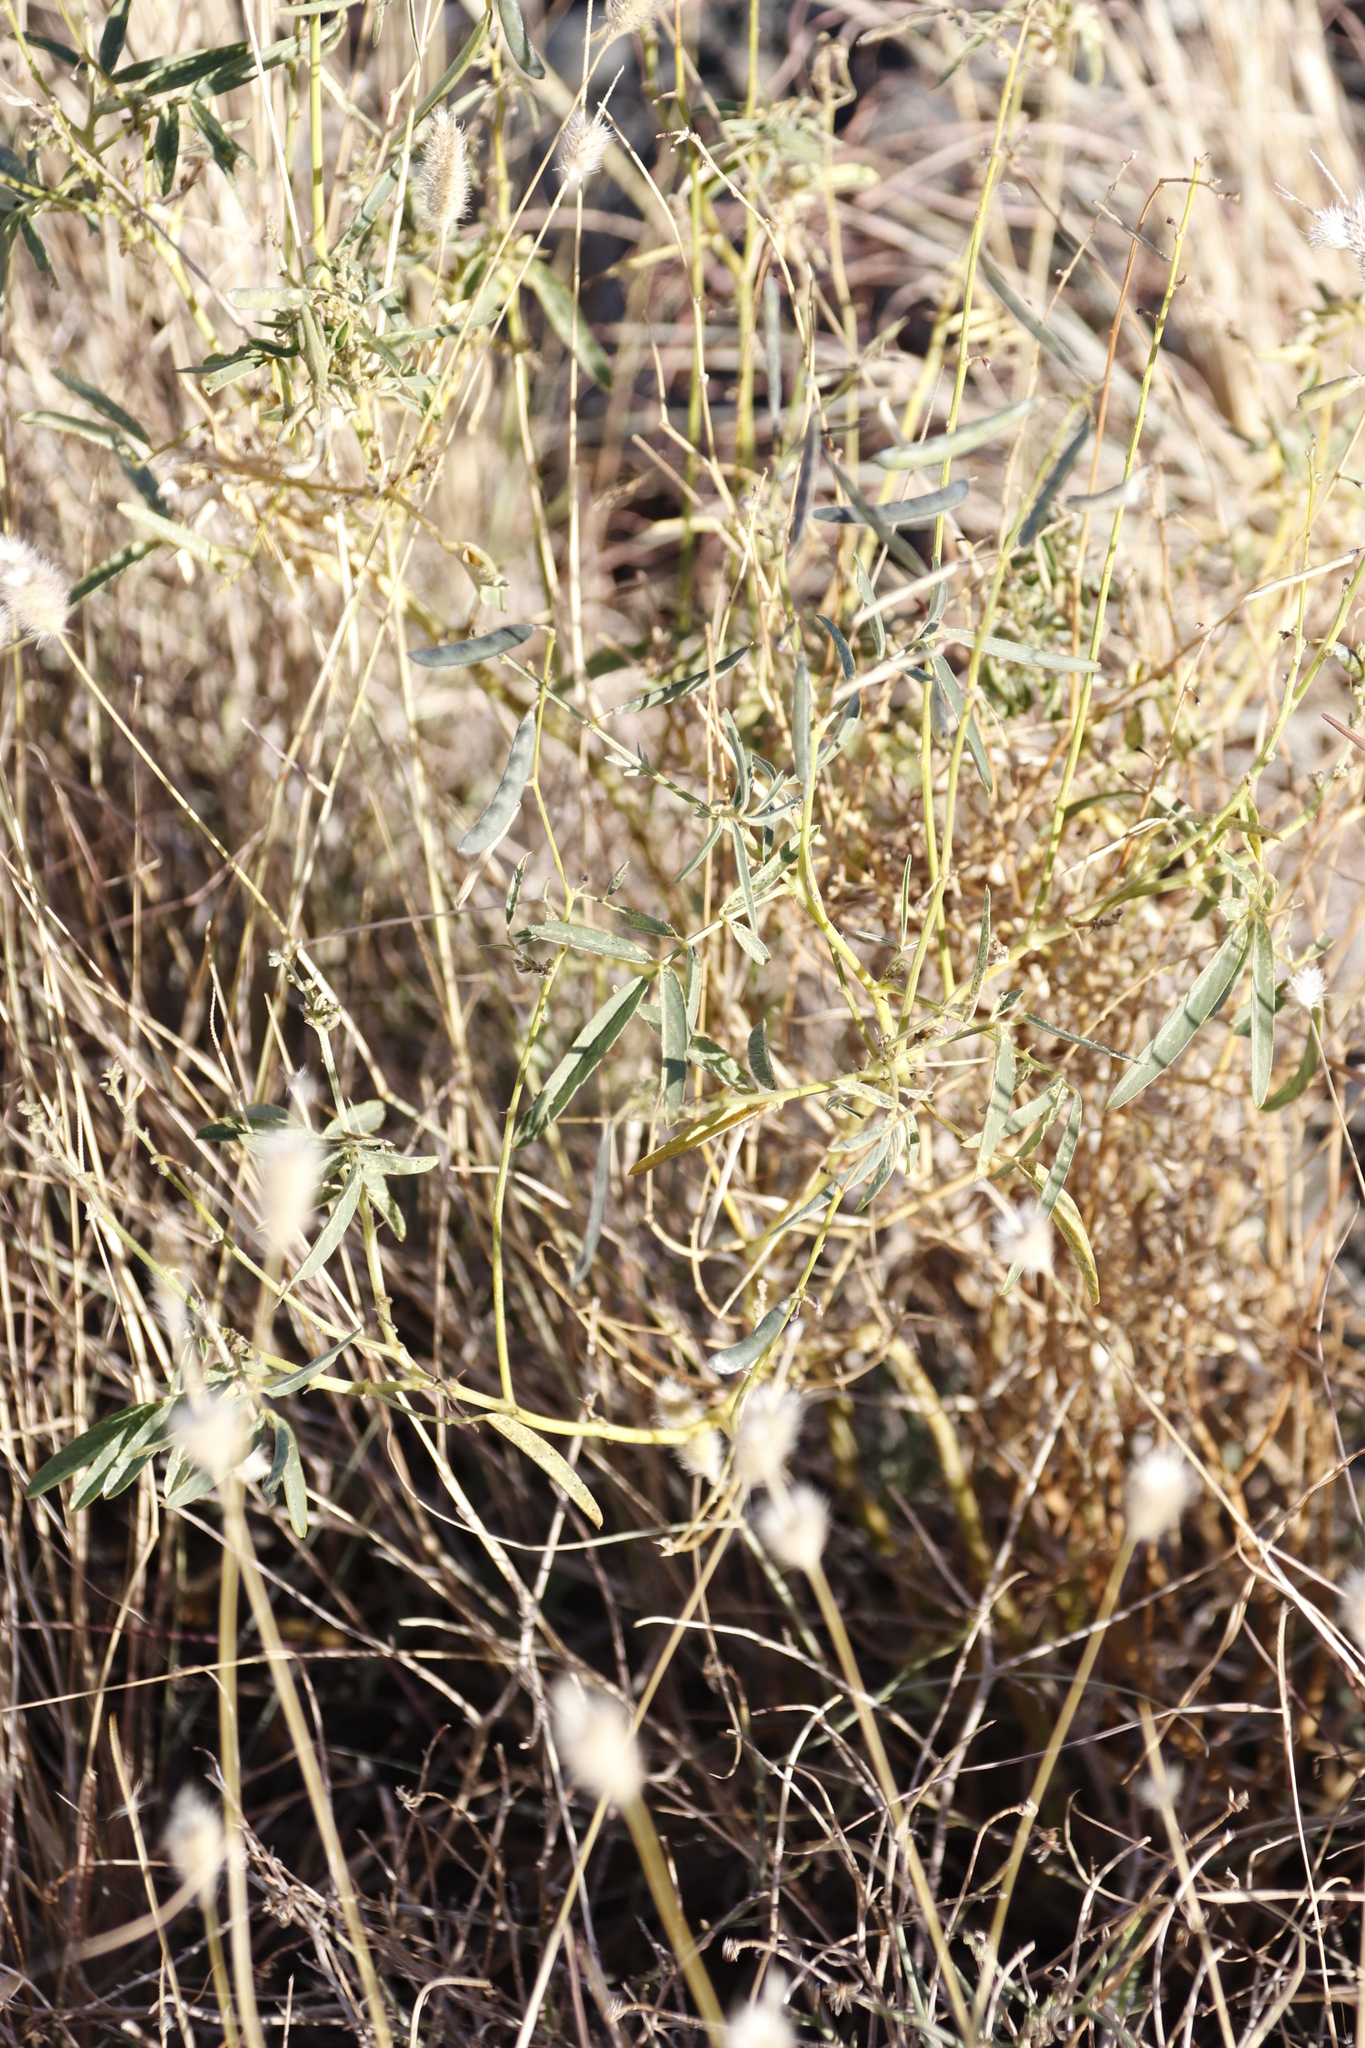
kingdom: Plantae
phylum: Tracheophyta
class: Liliopsida
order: Poales
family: Poaceae
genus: Fingerhuthia
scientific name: Fingerhuthia africana
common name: Zulu fescue
